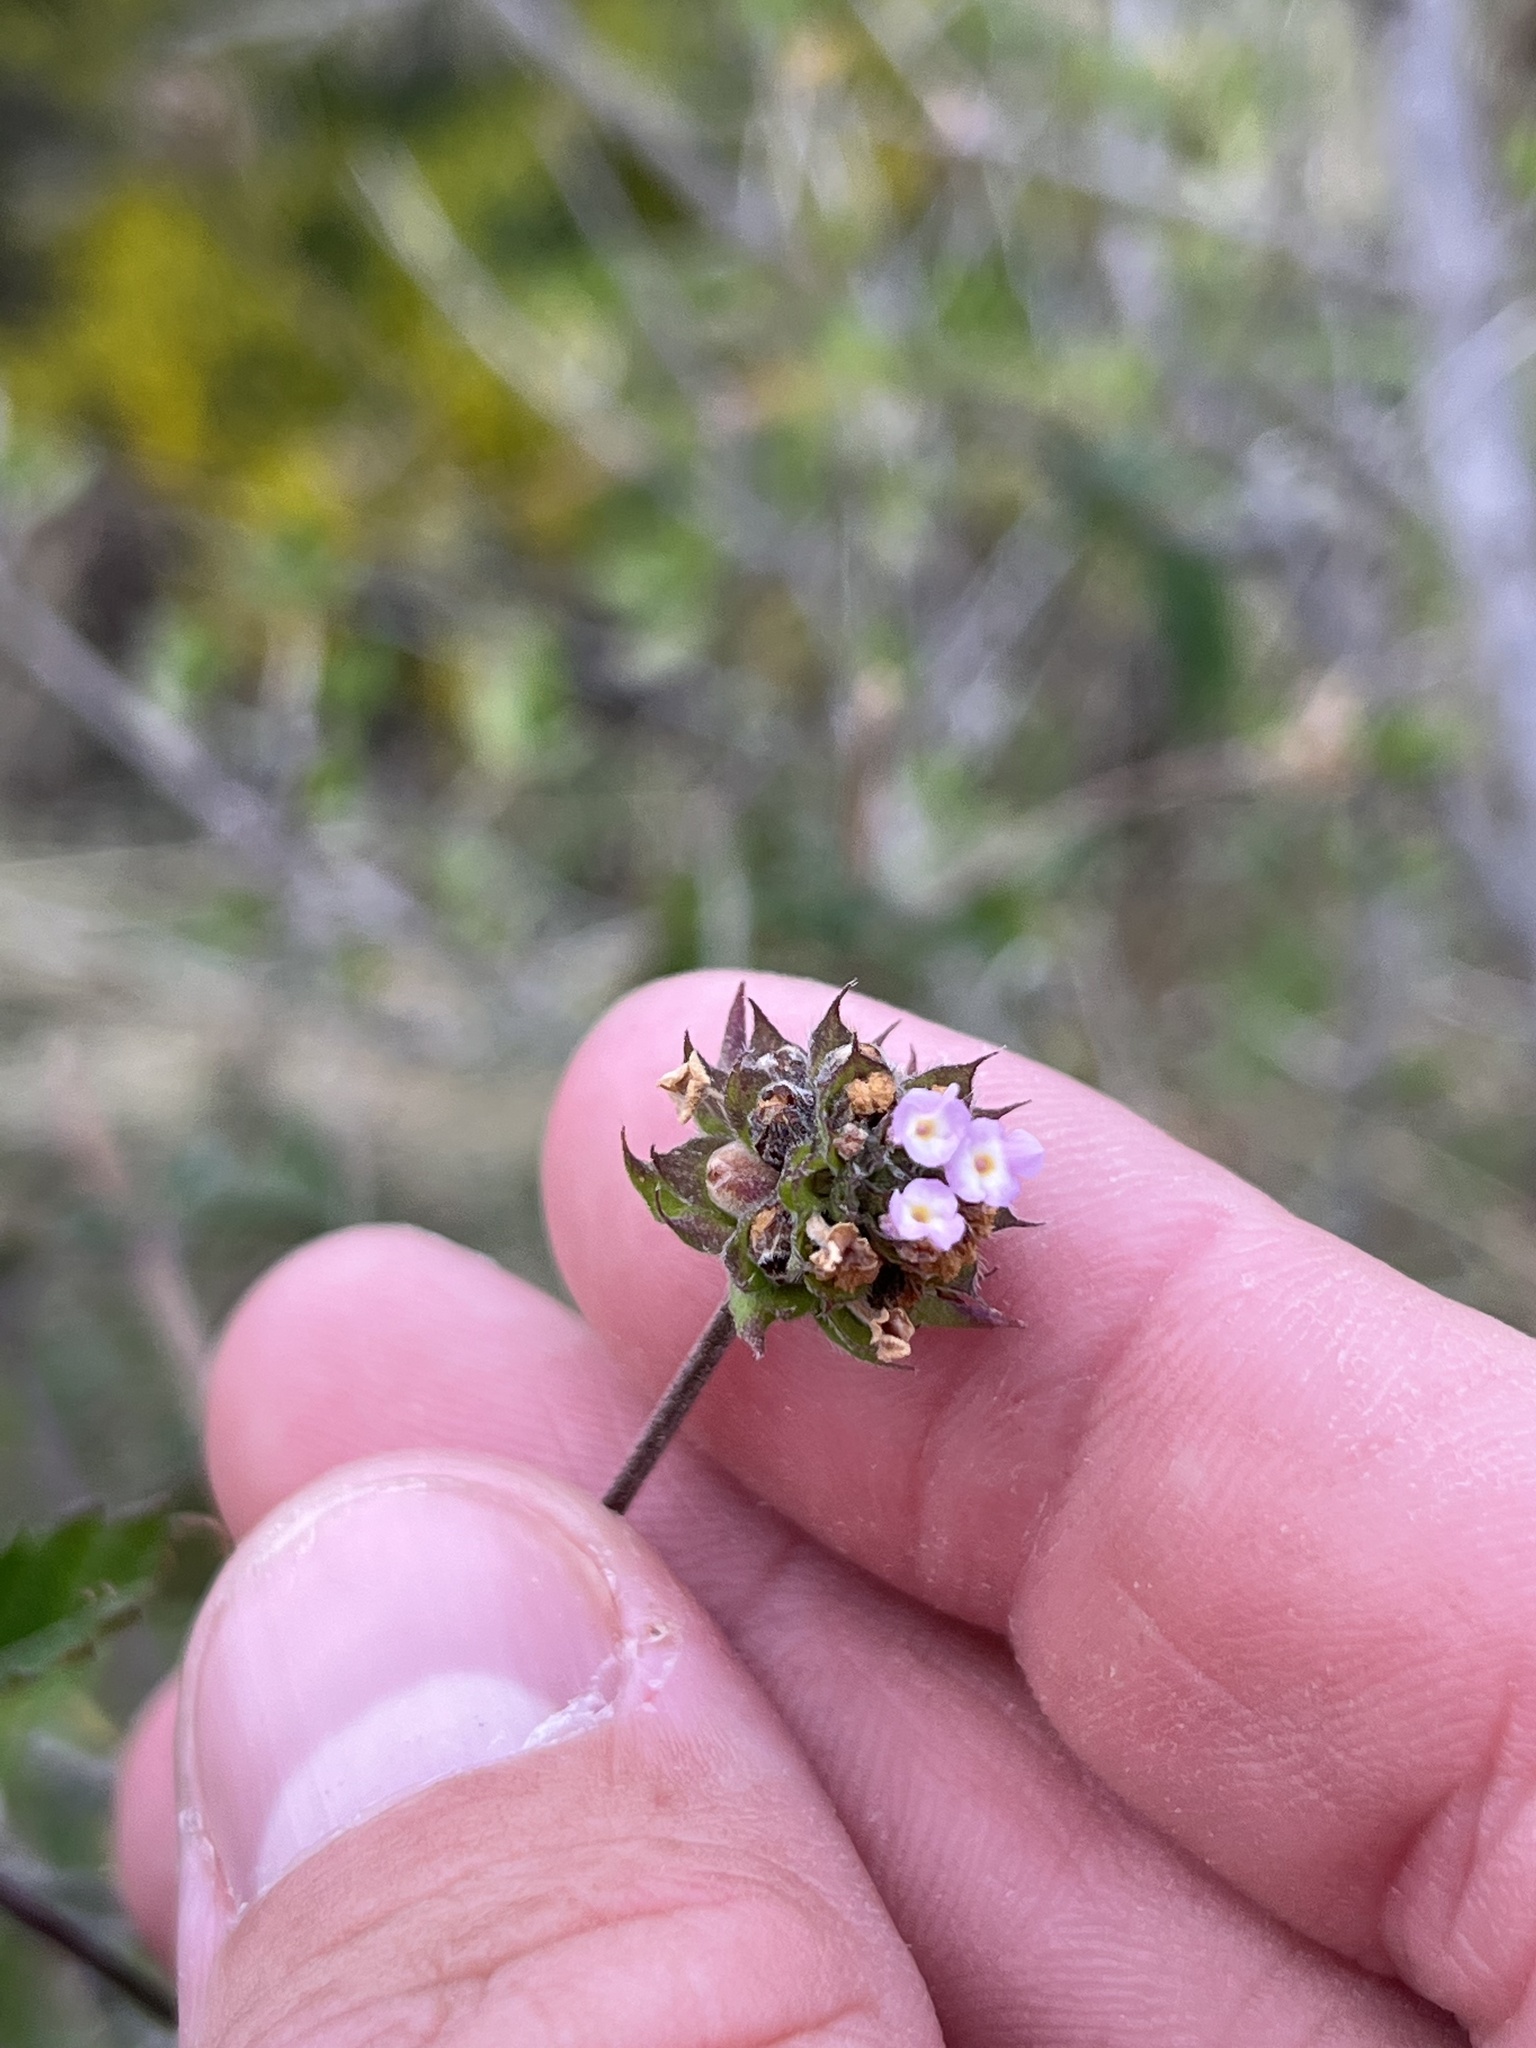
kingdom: Plantae
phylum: Tracheophyta
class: Magnoliopsida
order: Lamiales
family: Verbenaceae
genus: Lantana
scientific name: Lantana achyranthifolia
